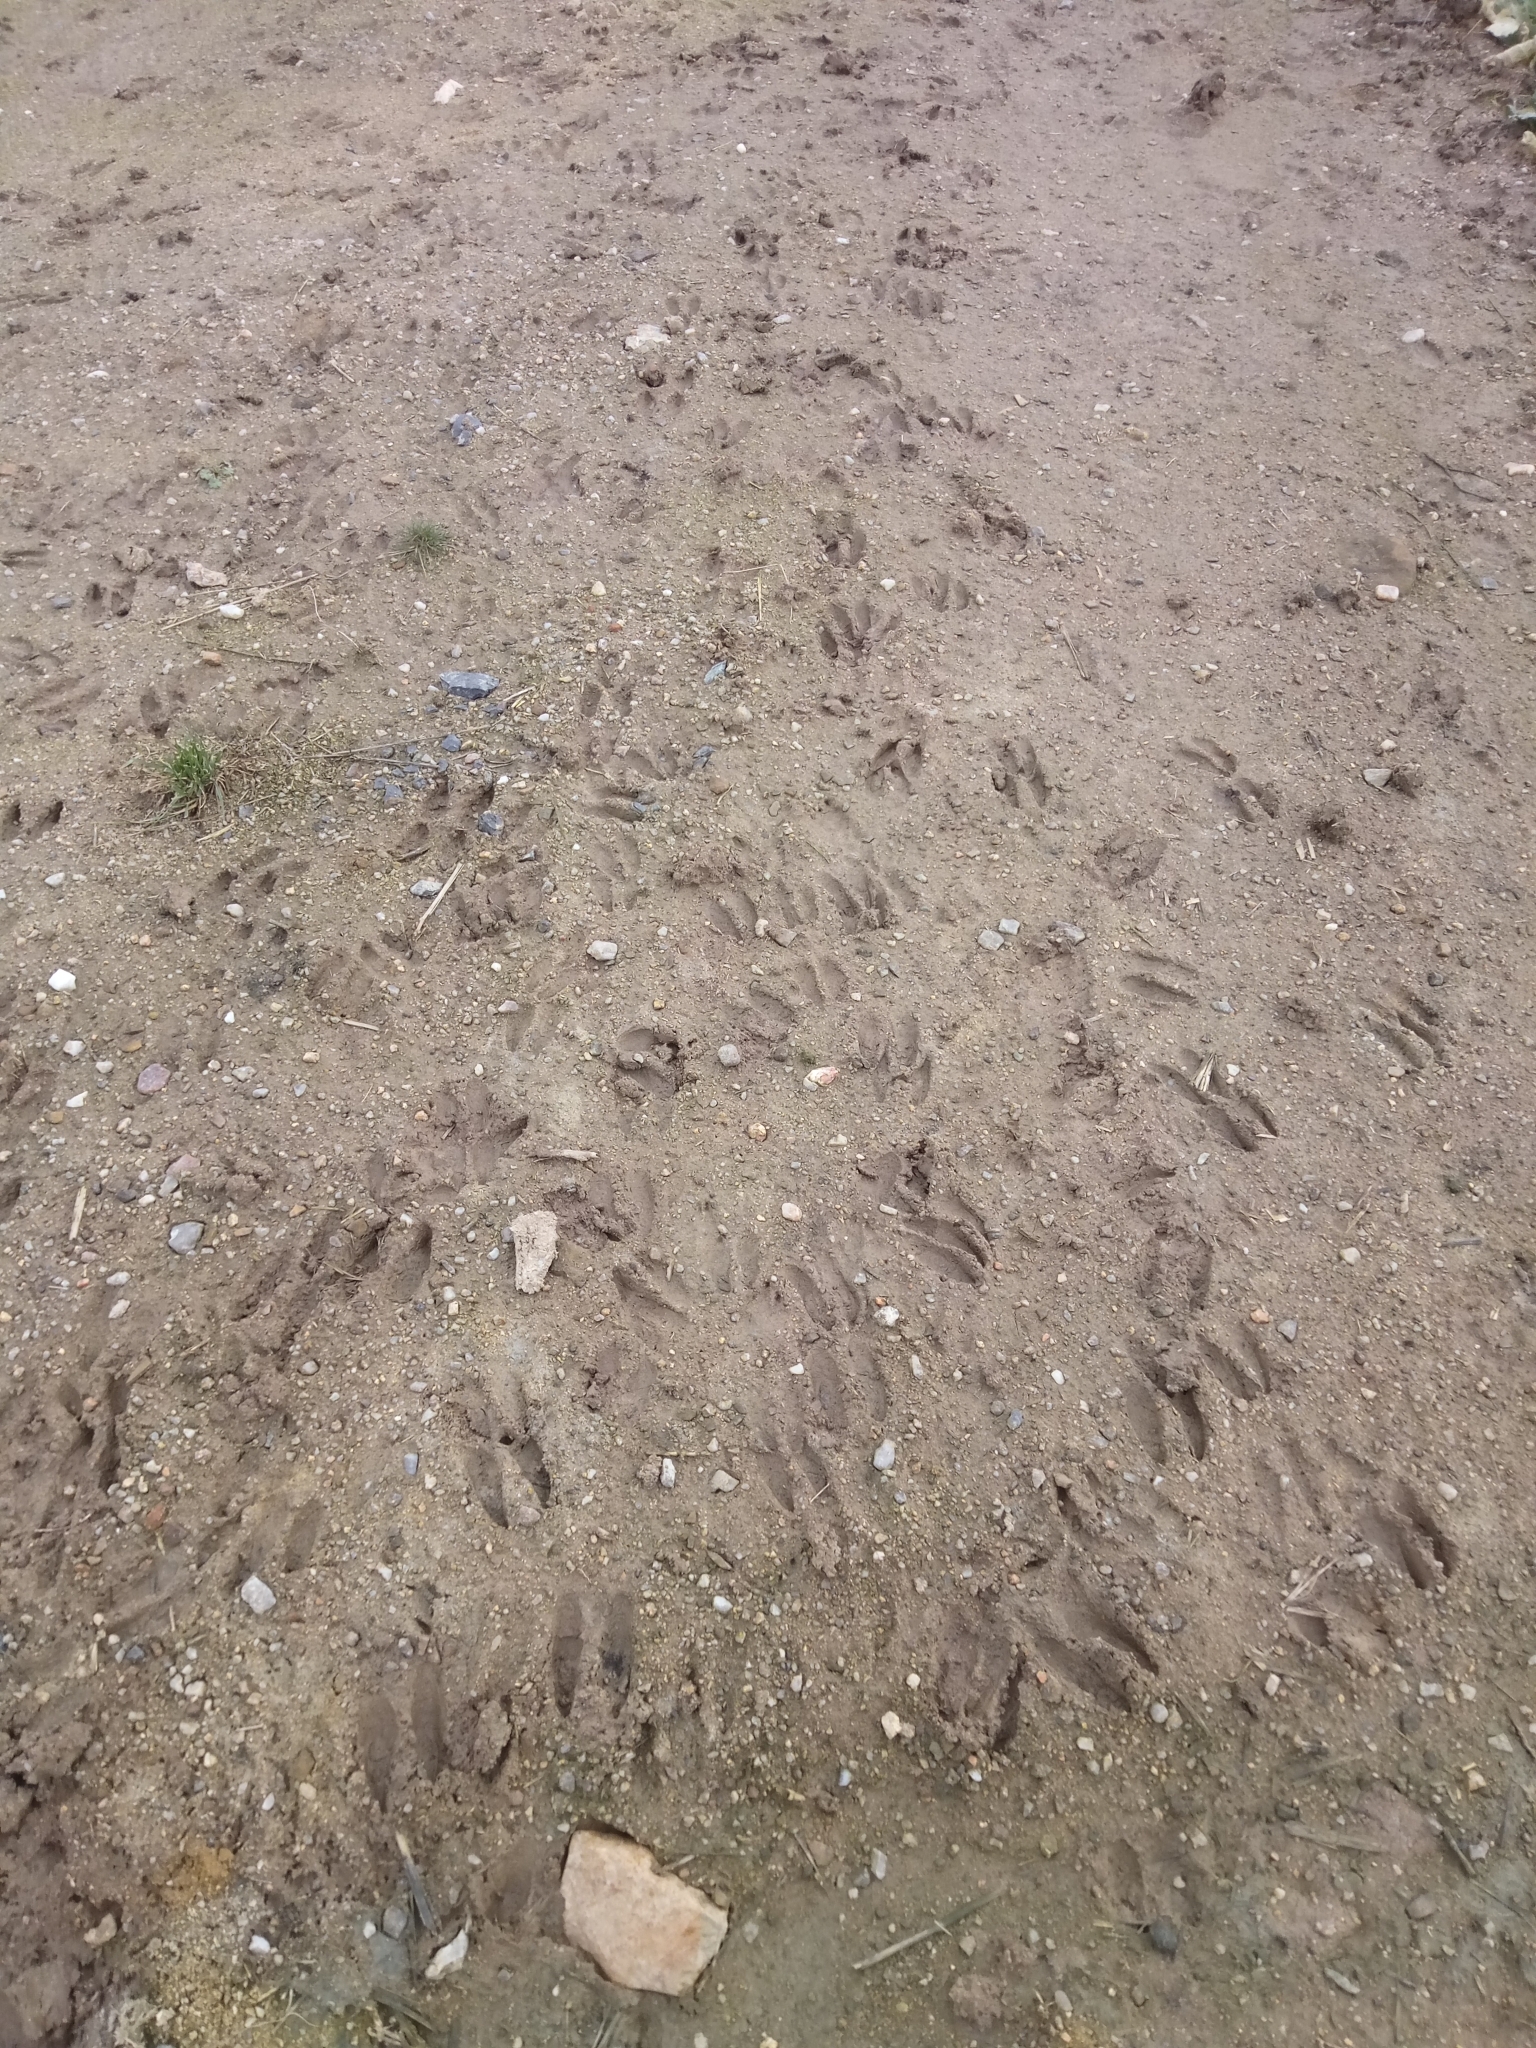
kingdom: Animalia
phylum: Chordata
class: Mammalia
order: Artiodactyla
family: Cervidae
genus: Capreolus
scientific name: Capreolus capreolus
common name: Western roe deer
